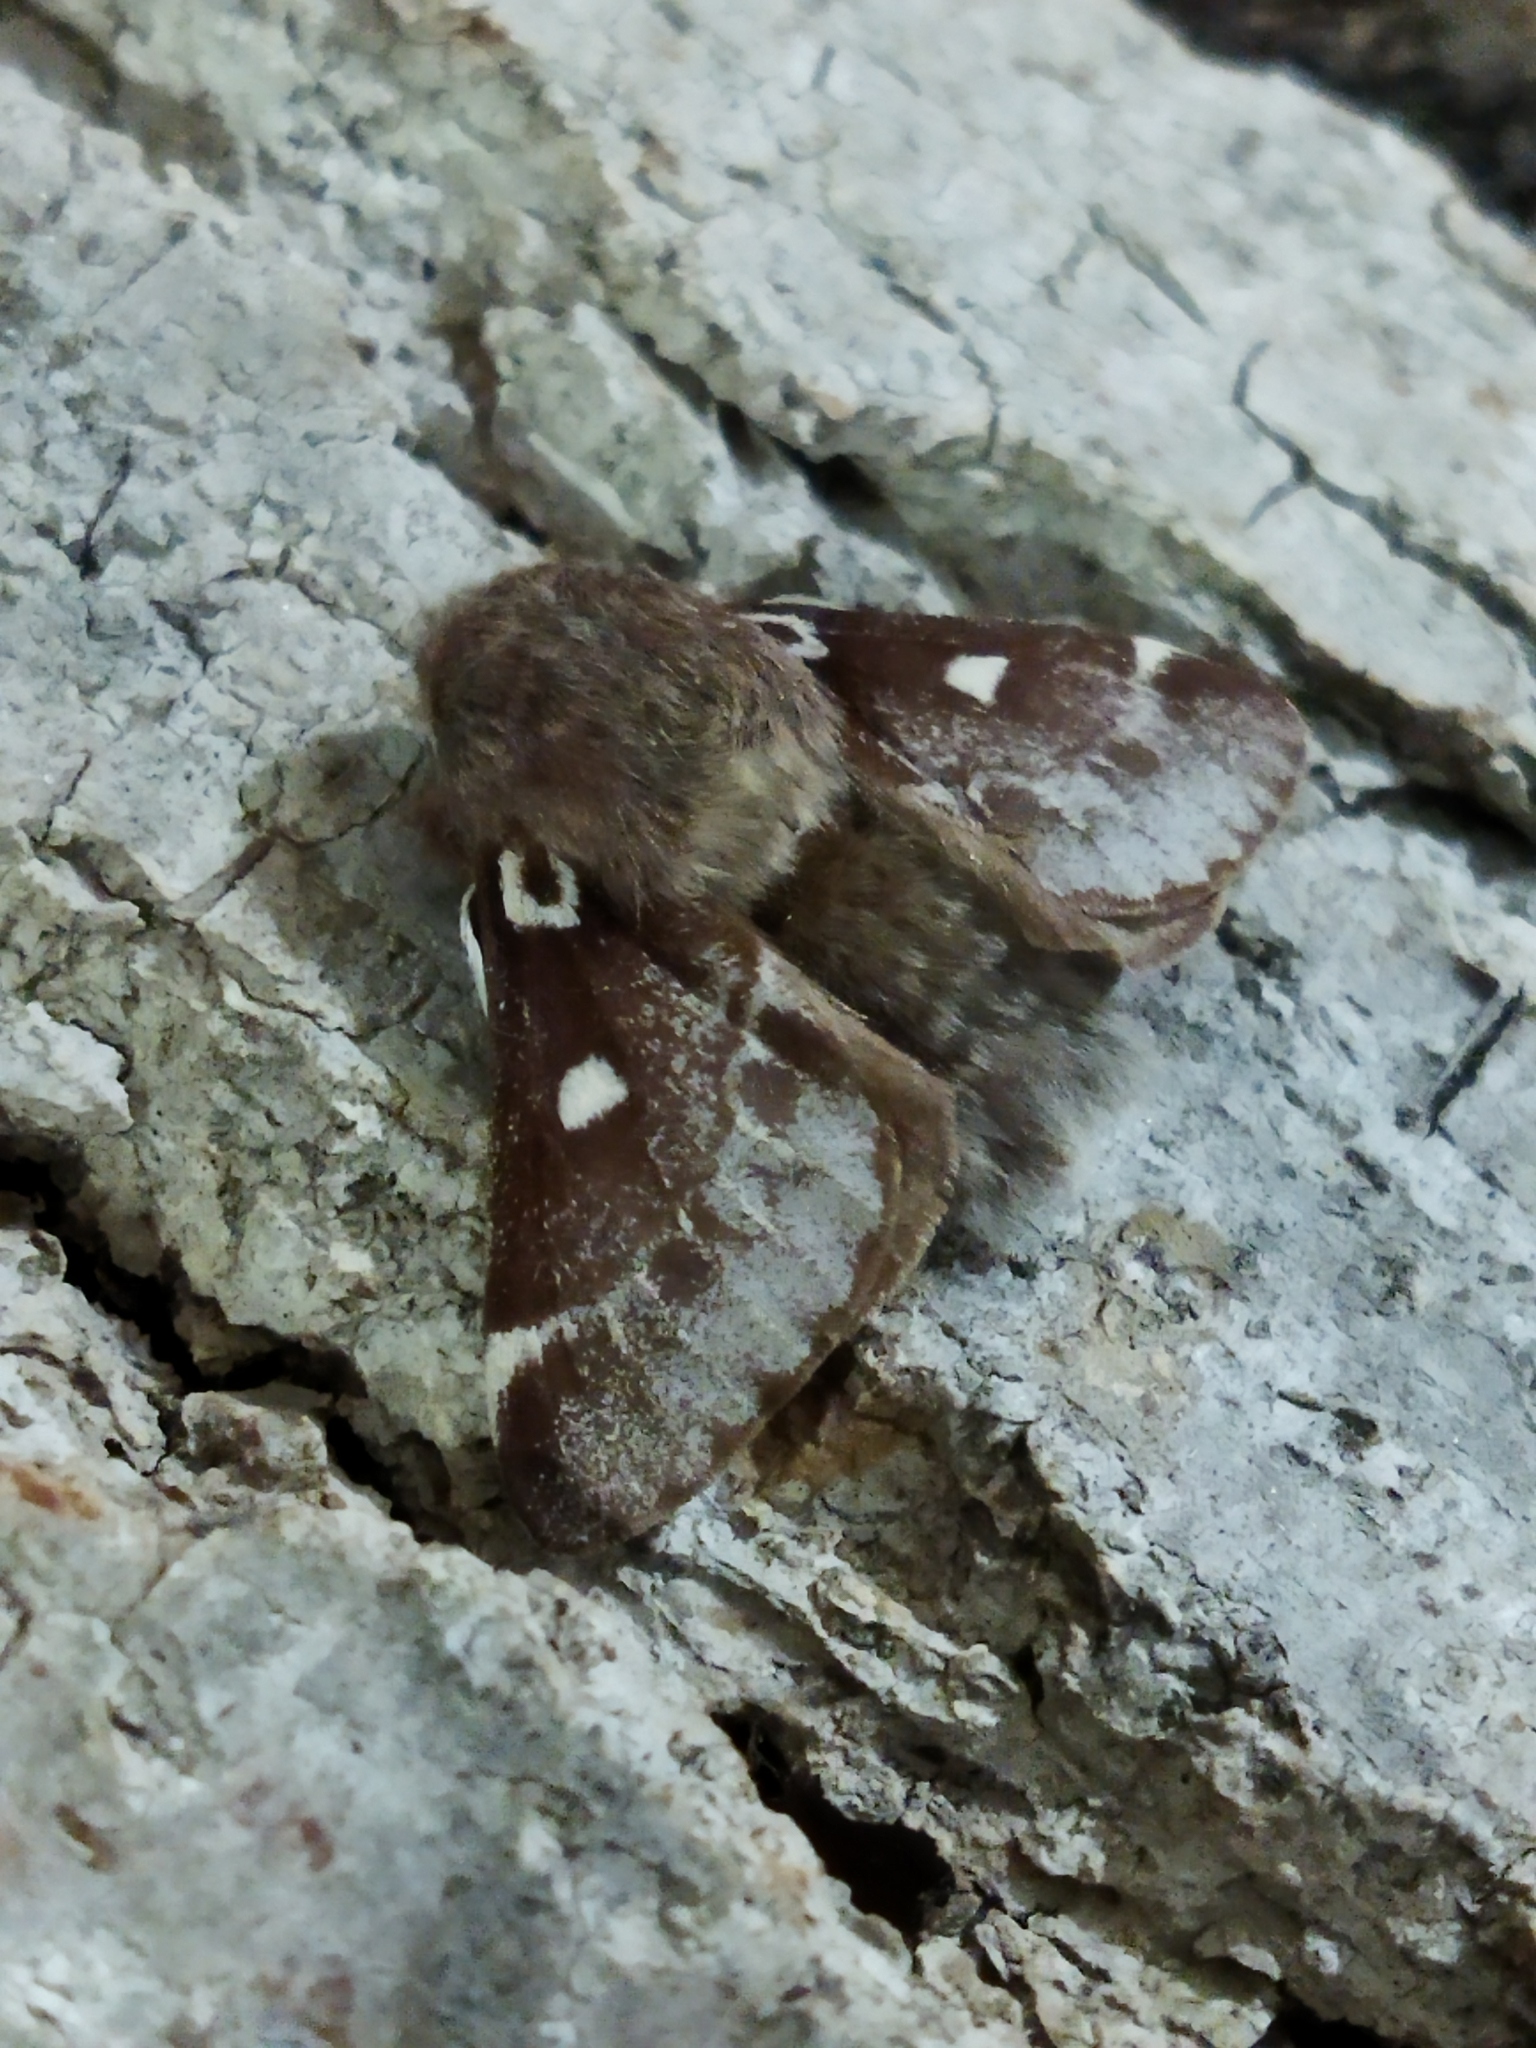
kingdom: Animalia
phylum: Arthropoda
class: Insecta
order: Lepidoptera
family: Lasiocampidae
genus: Eriogaster
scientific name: Eriogaster lanestris
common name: Small eggar
